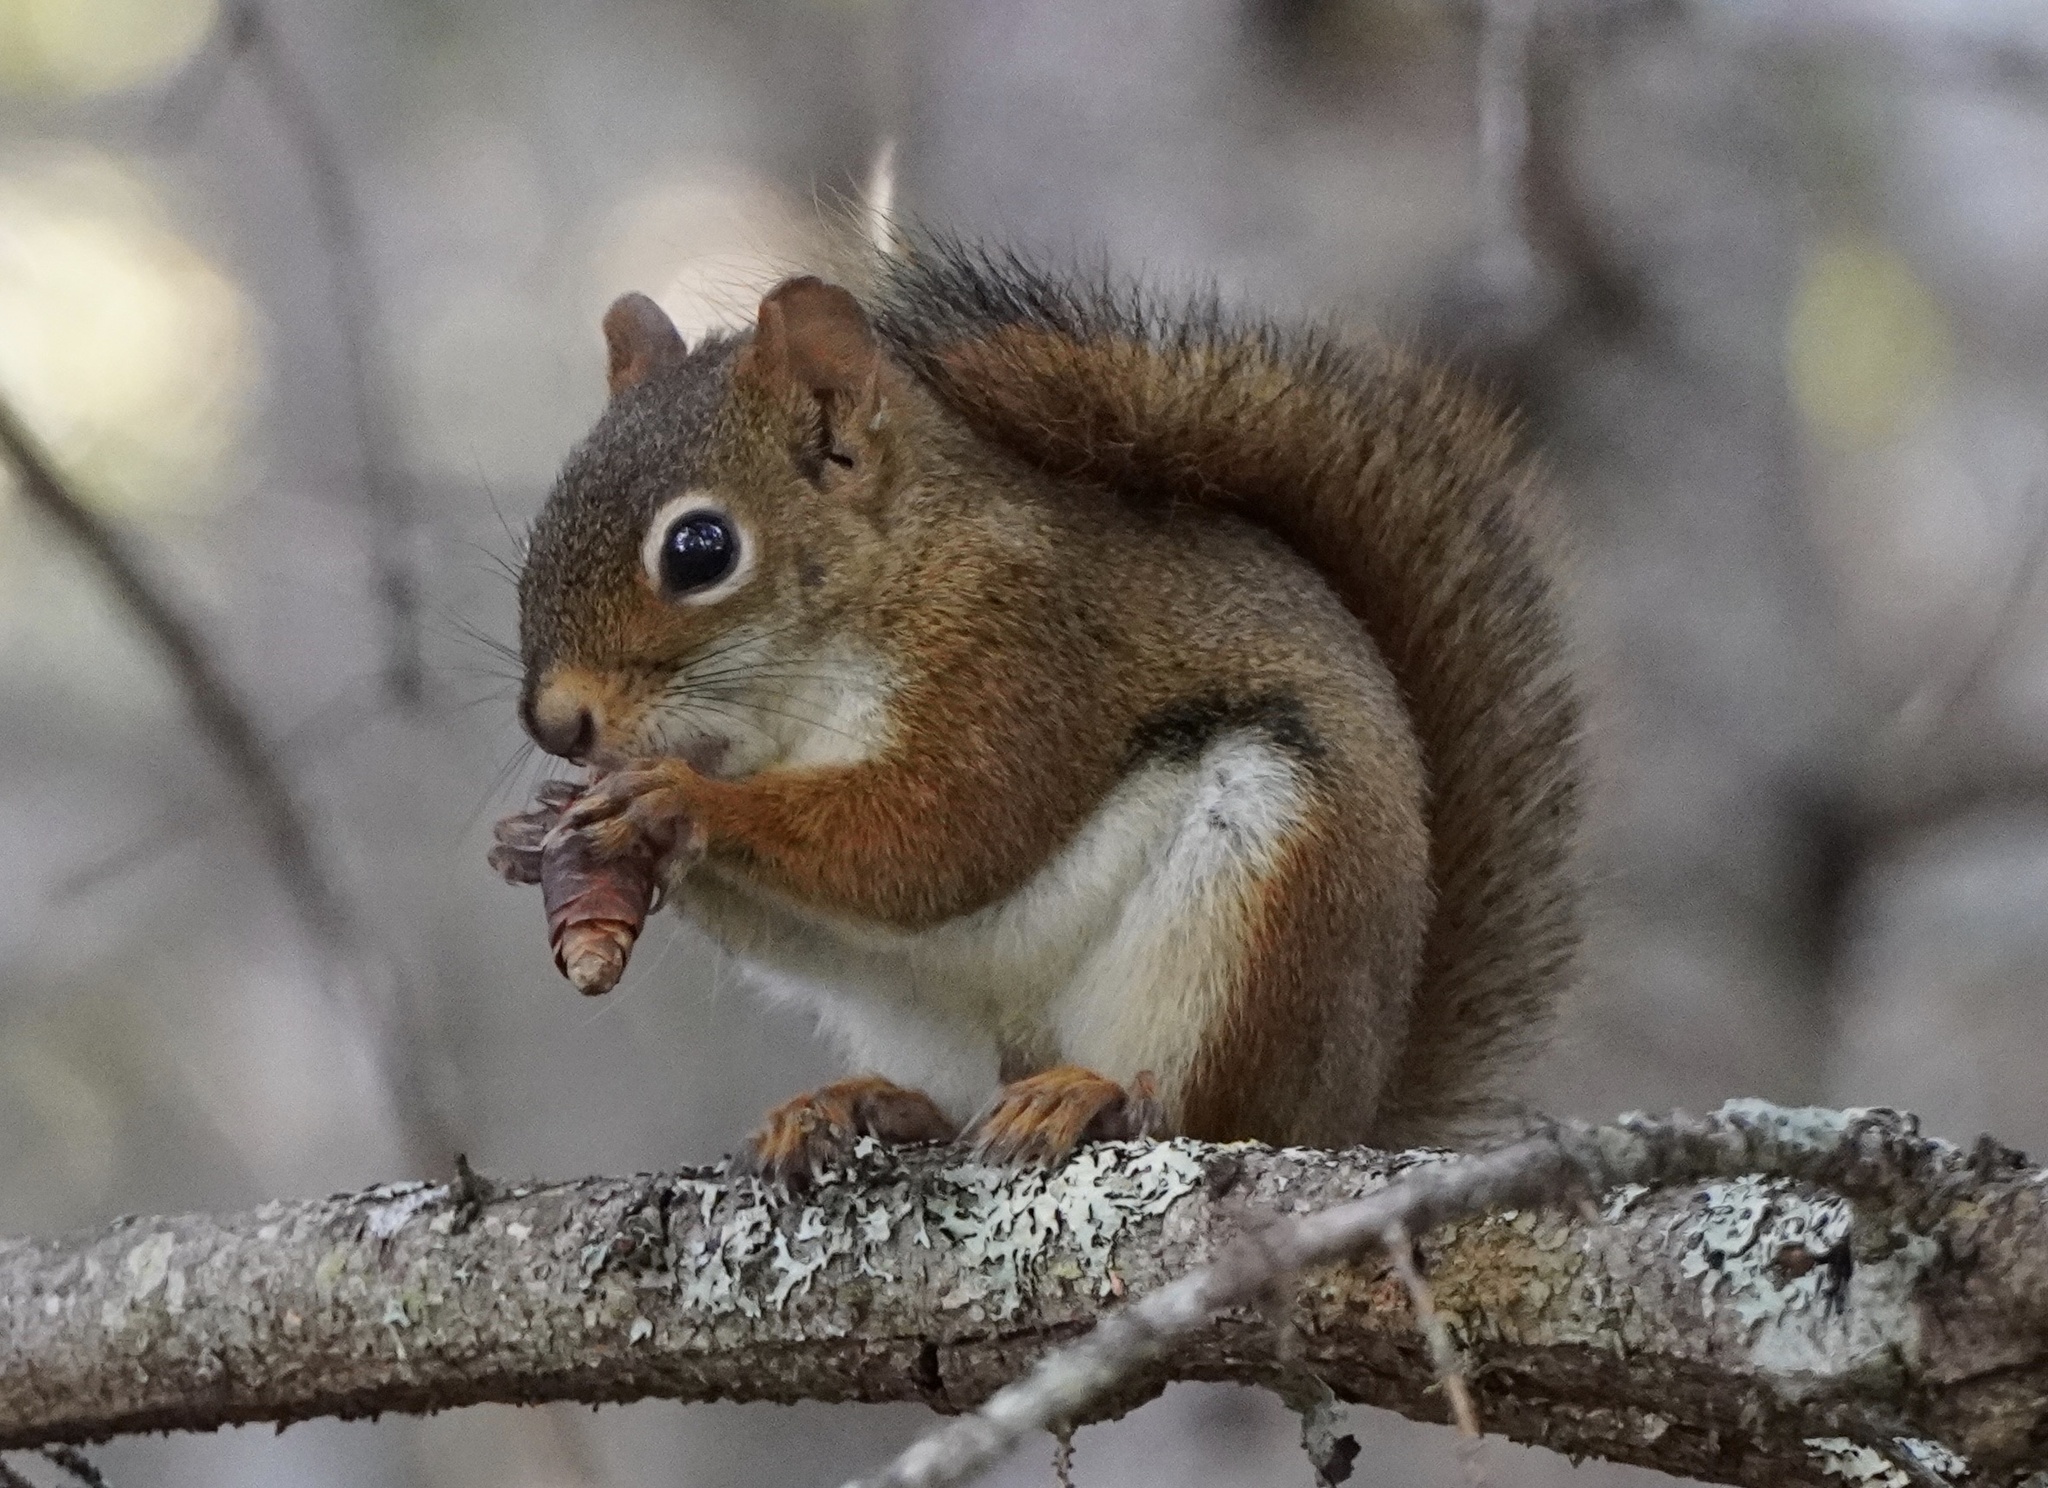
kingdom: Animalia
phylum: Chordata
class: Mammalia
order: Rodentia
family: Sciuridae
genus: Tamiasciurus
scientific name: Tamiasciurus hudsonicus
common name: Red squirrel
